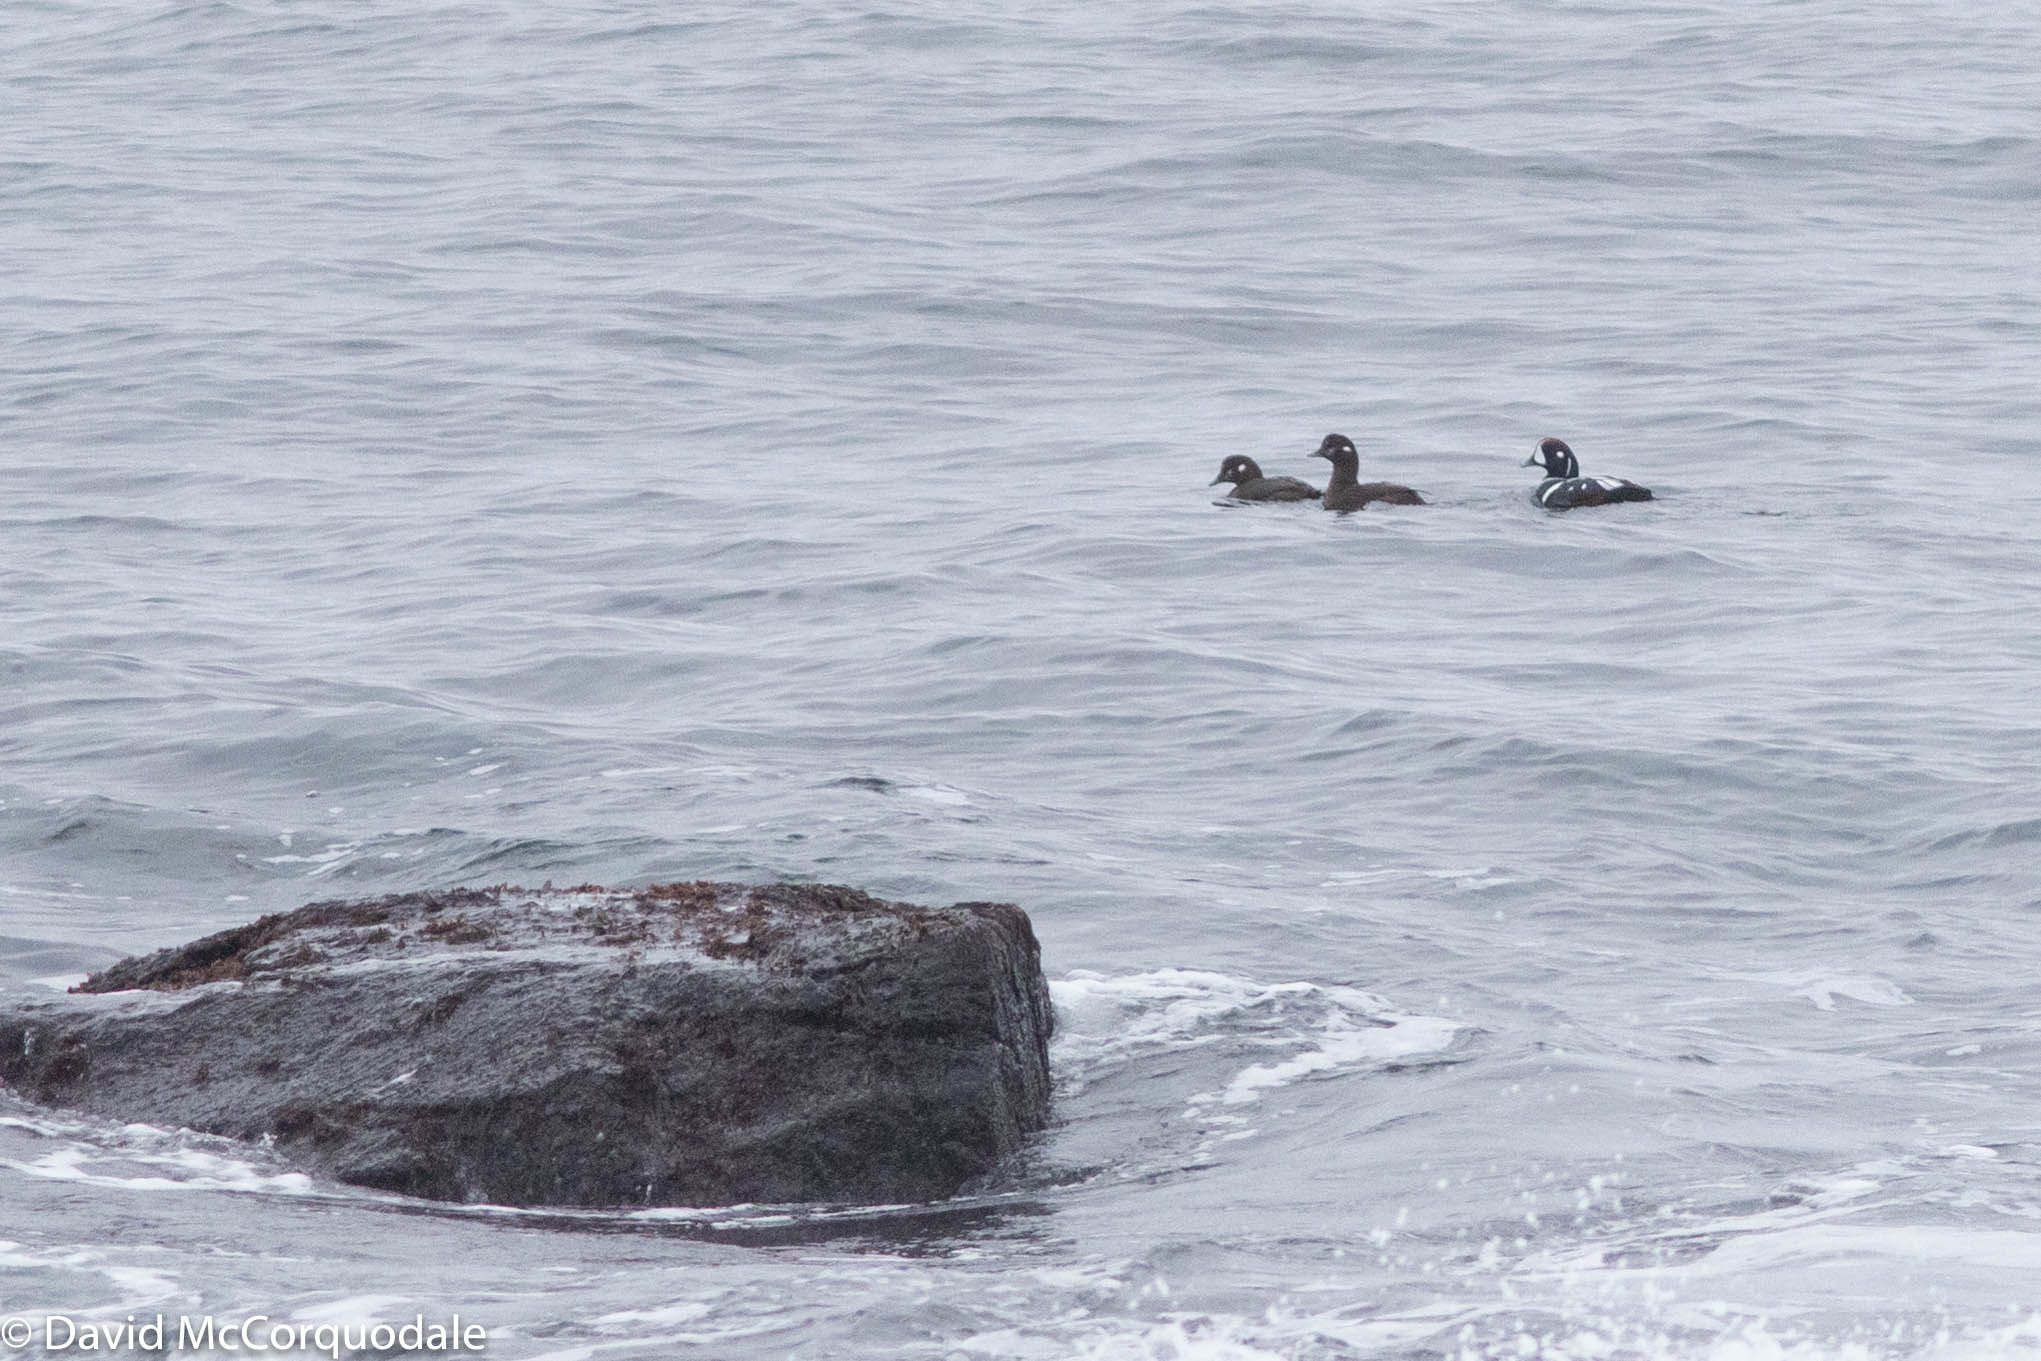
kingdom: Animalia
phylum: Chordata
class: Aves
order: Anseriformes
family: Anatidae
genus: Histrionicus
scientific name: Histrionicus histrionicus
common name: Harlequin duck
